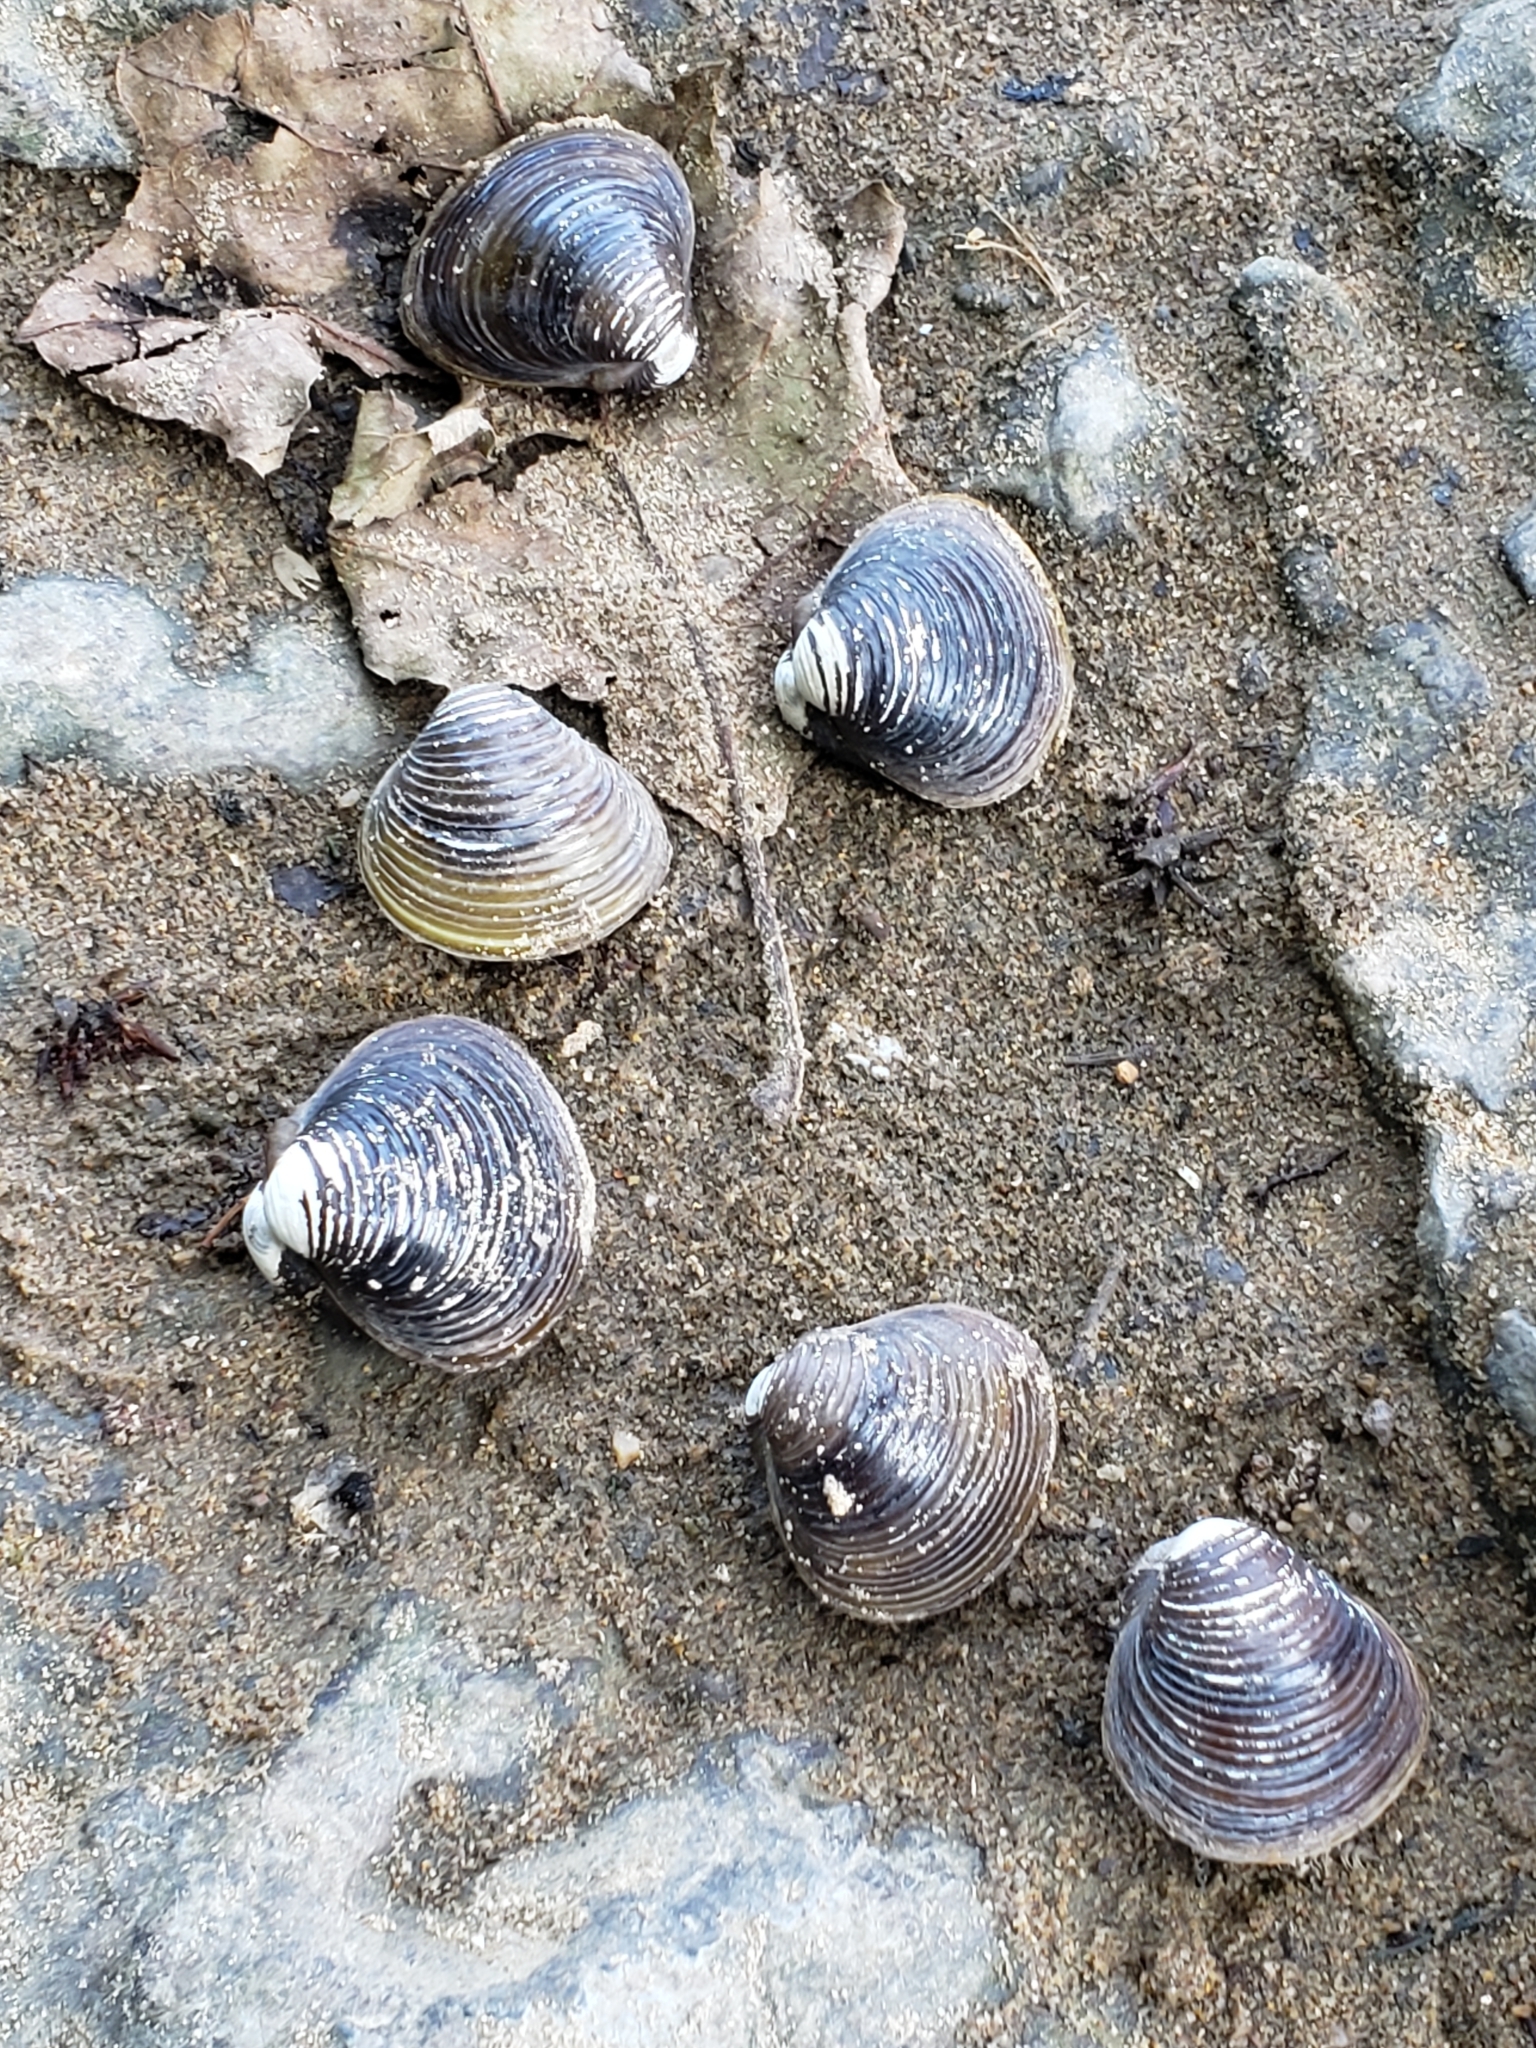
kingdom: Animalia
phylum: Mollusca
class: Bivalvia
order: Venerida
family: Cyrenidae
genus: Corbicula
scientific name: Corbicula fluminea
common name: Asian clam
